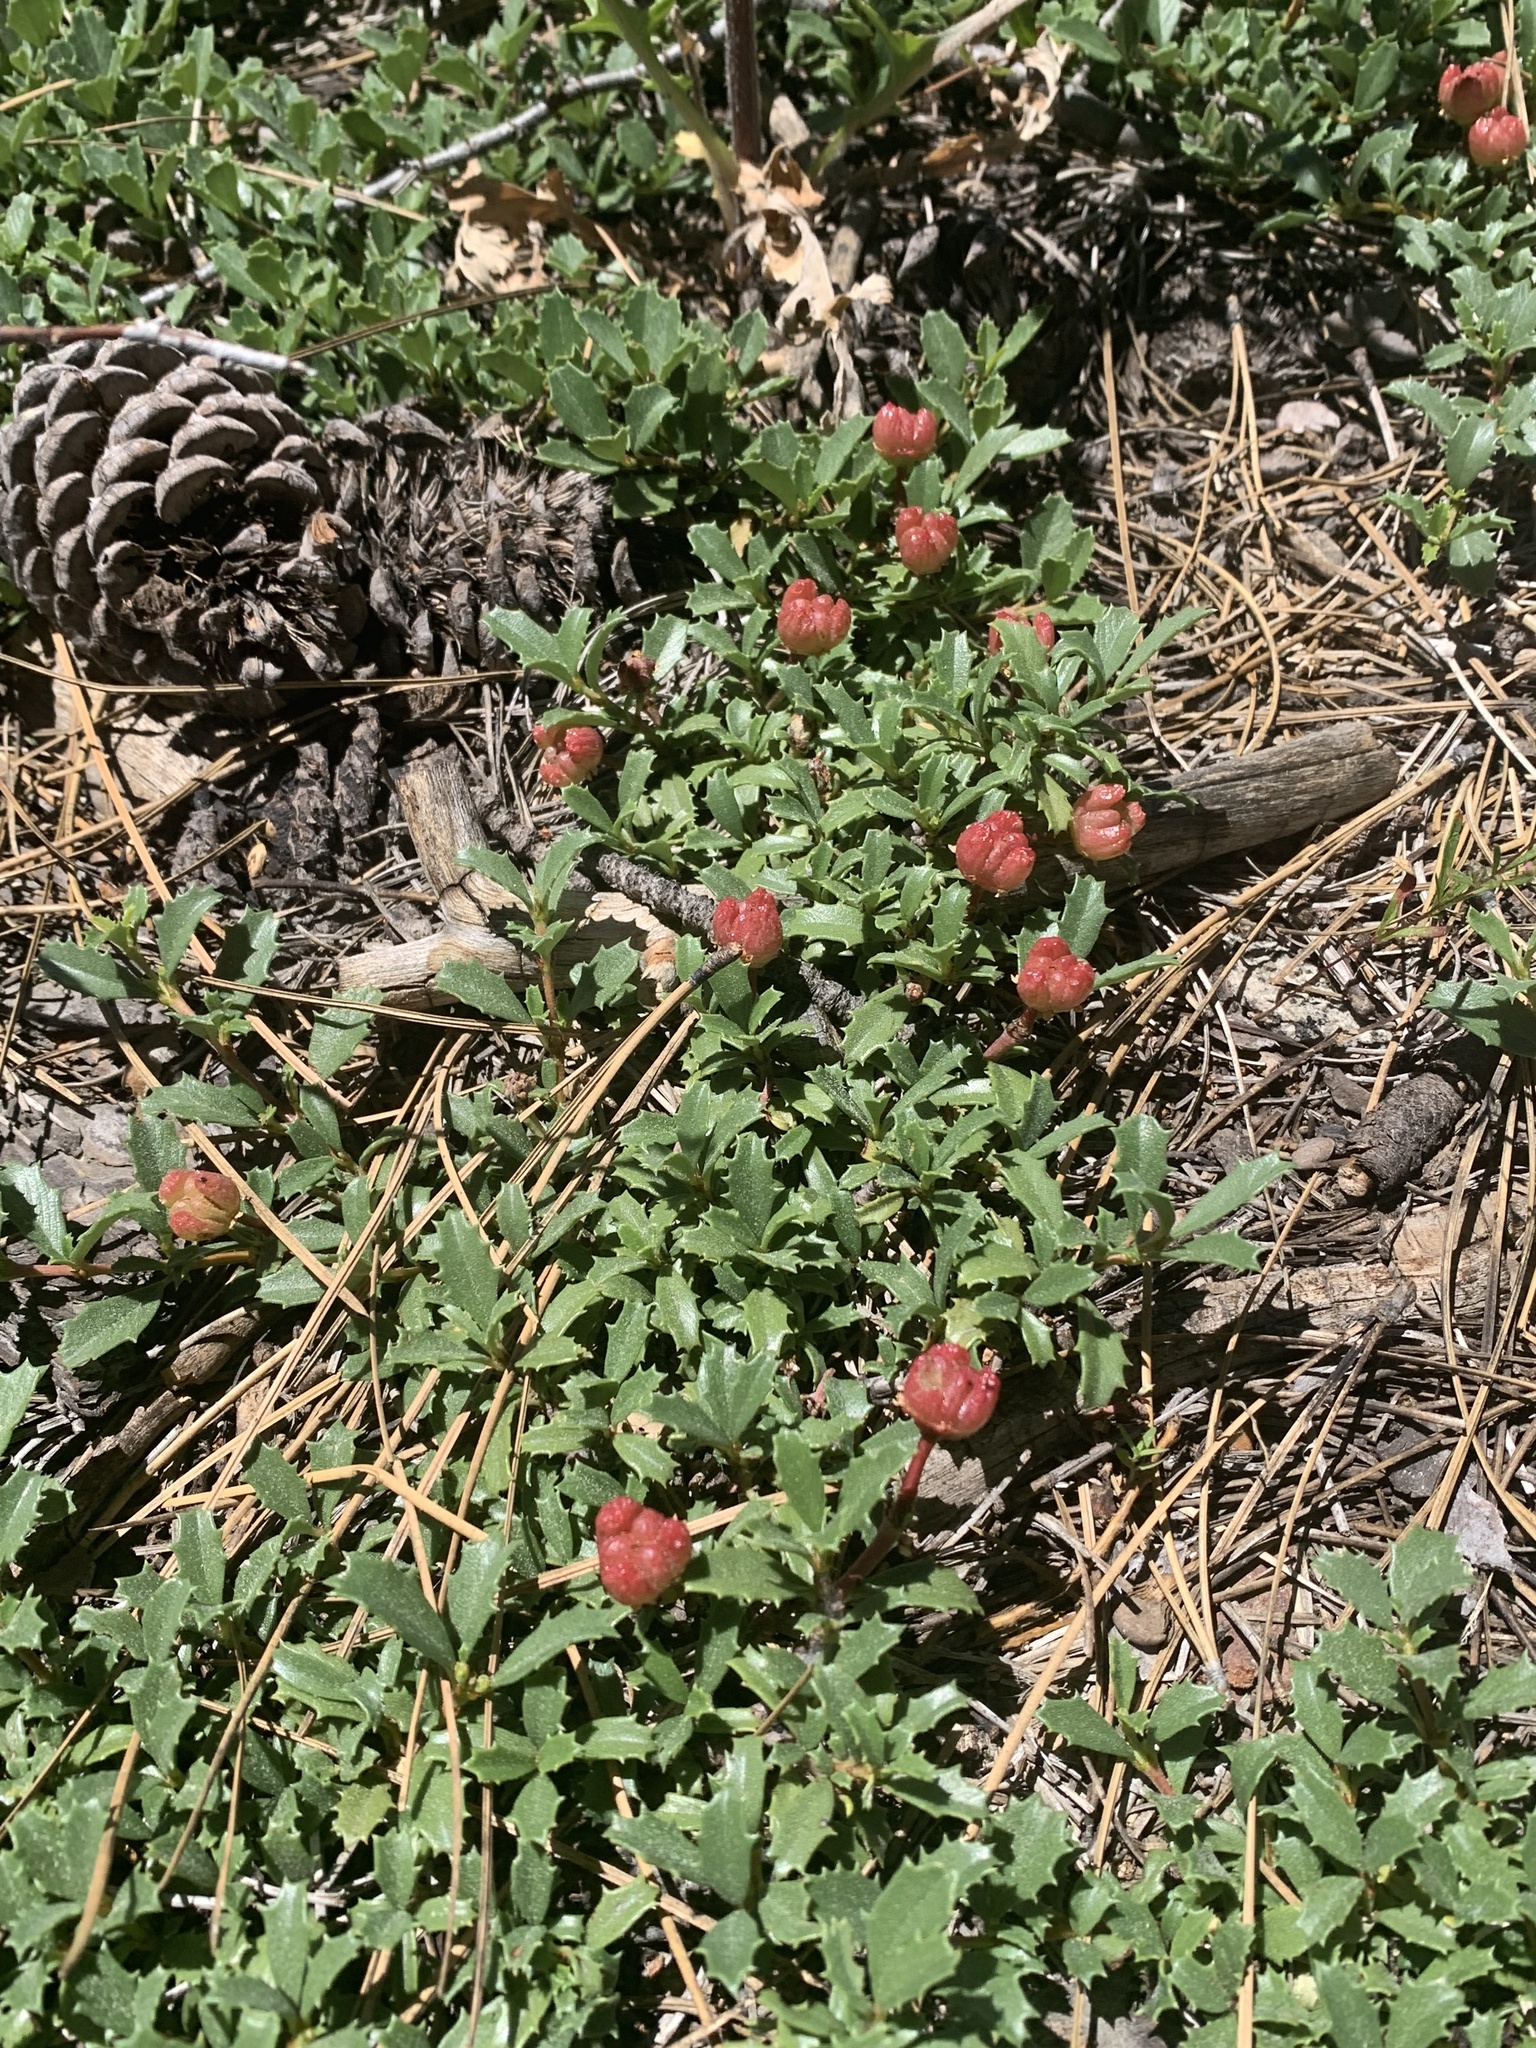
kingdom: Plantae
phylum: Tracheophyta
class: Magnoliopsida
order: Rosales
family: Rhamnaceae
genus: Ceanothus
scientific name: Ceanothus prostratus
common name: Mahala-mat
